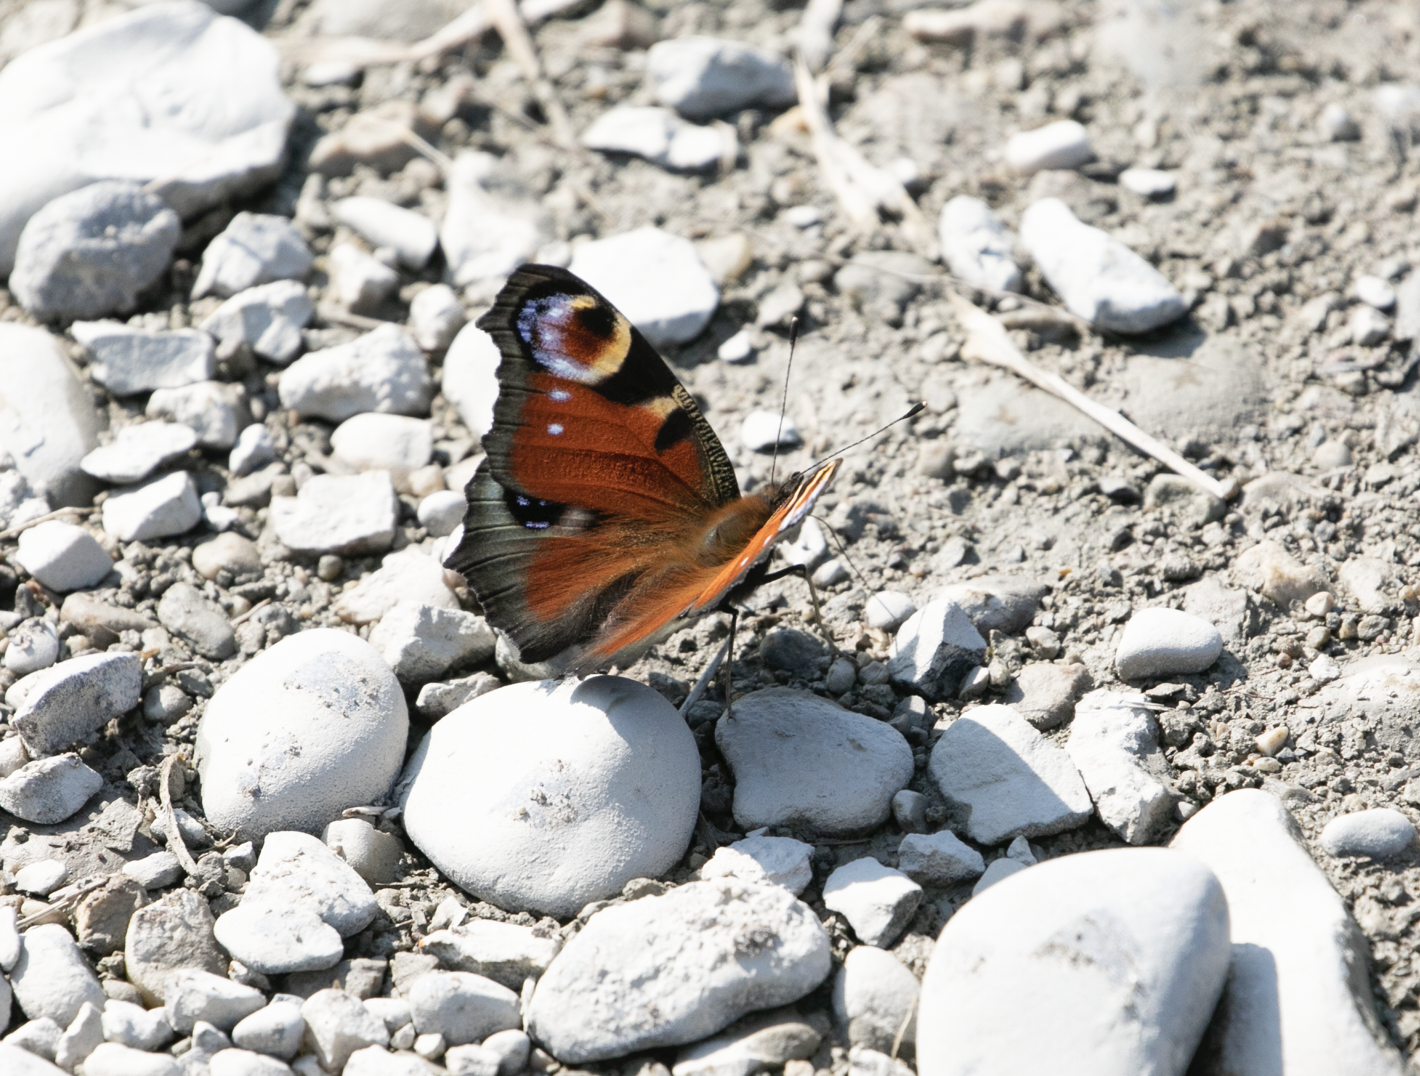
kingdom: Animalia
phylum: Arthropoda
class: Insecta
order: Lepidoptera
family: Nymphalidae
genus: Aglais
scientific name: Aglais io
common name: Peacock
